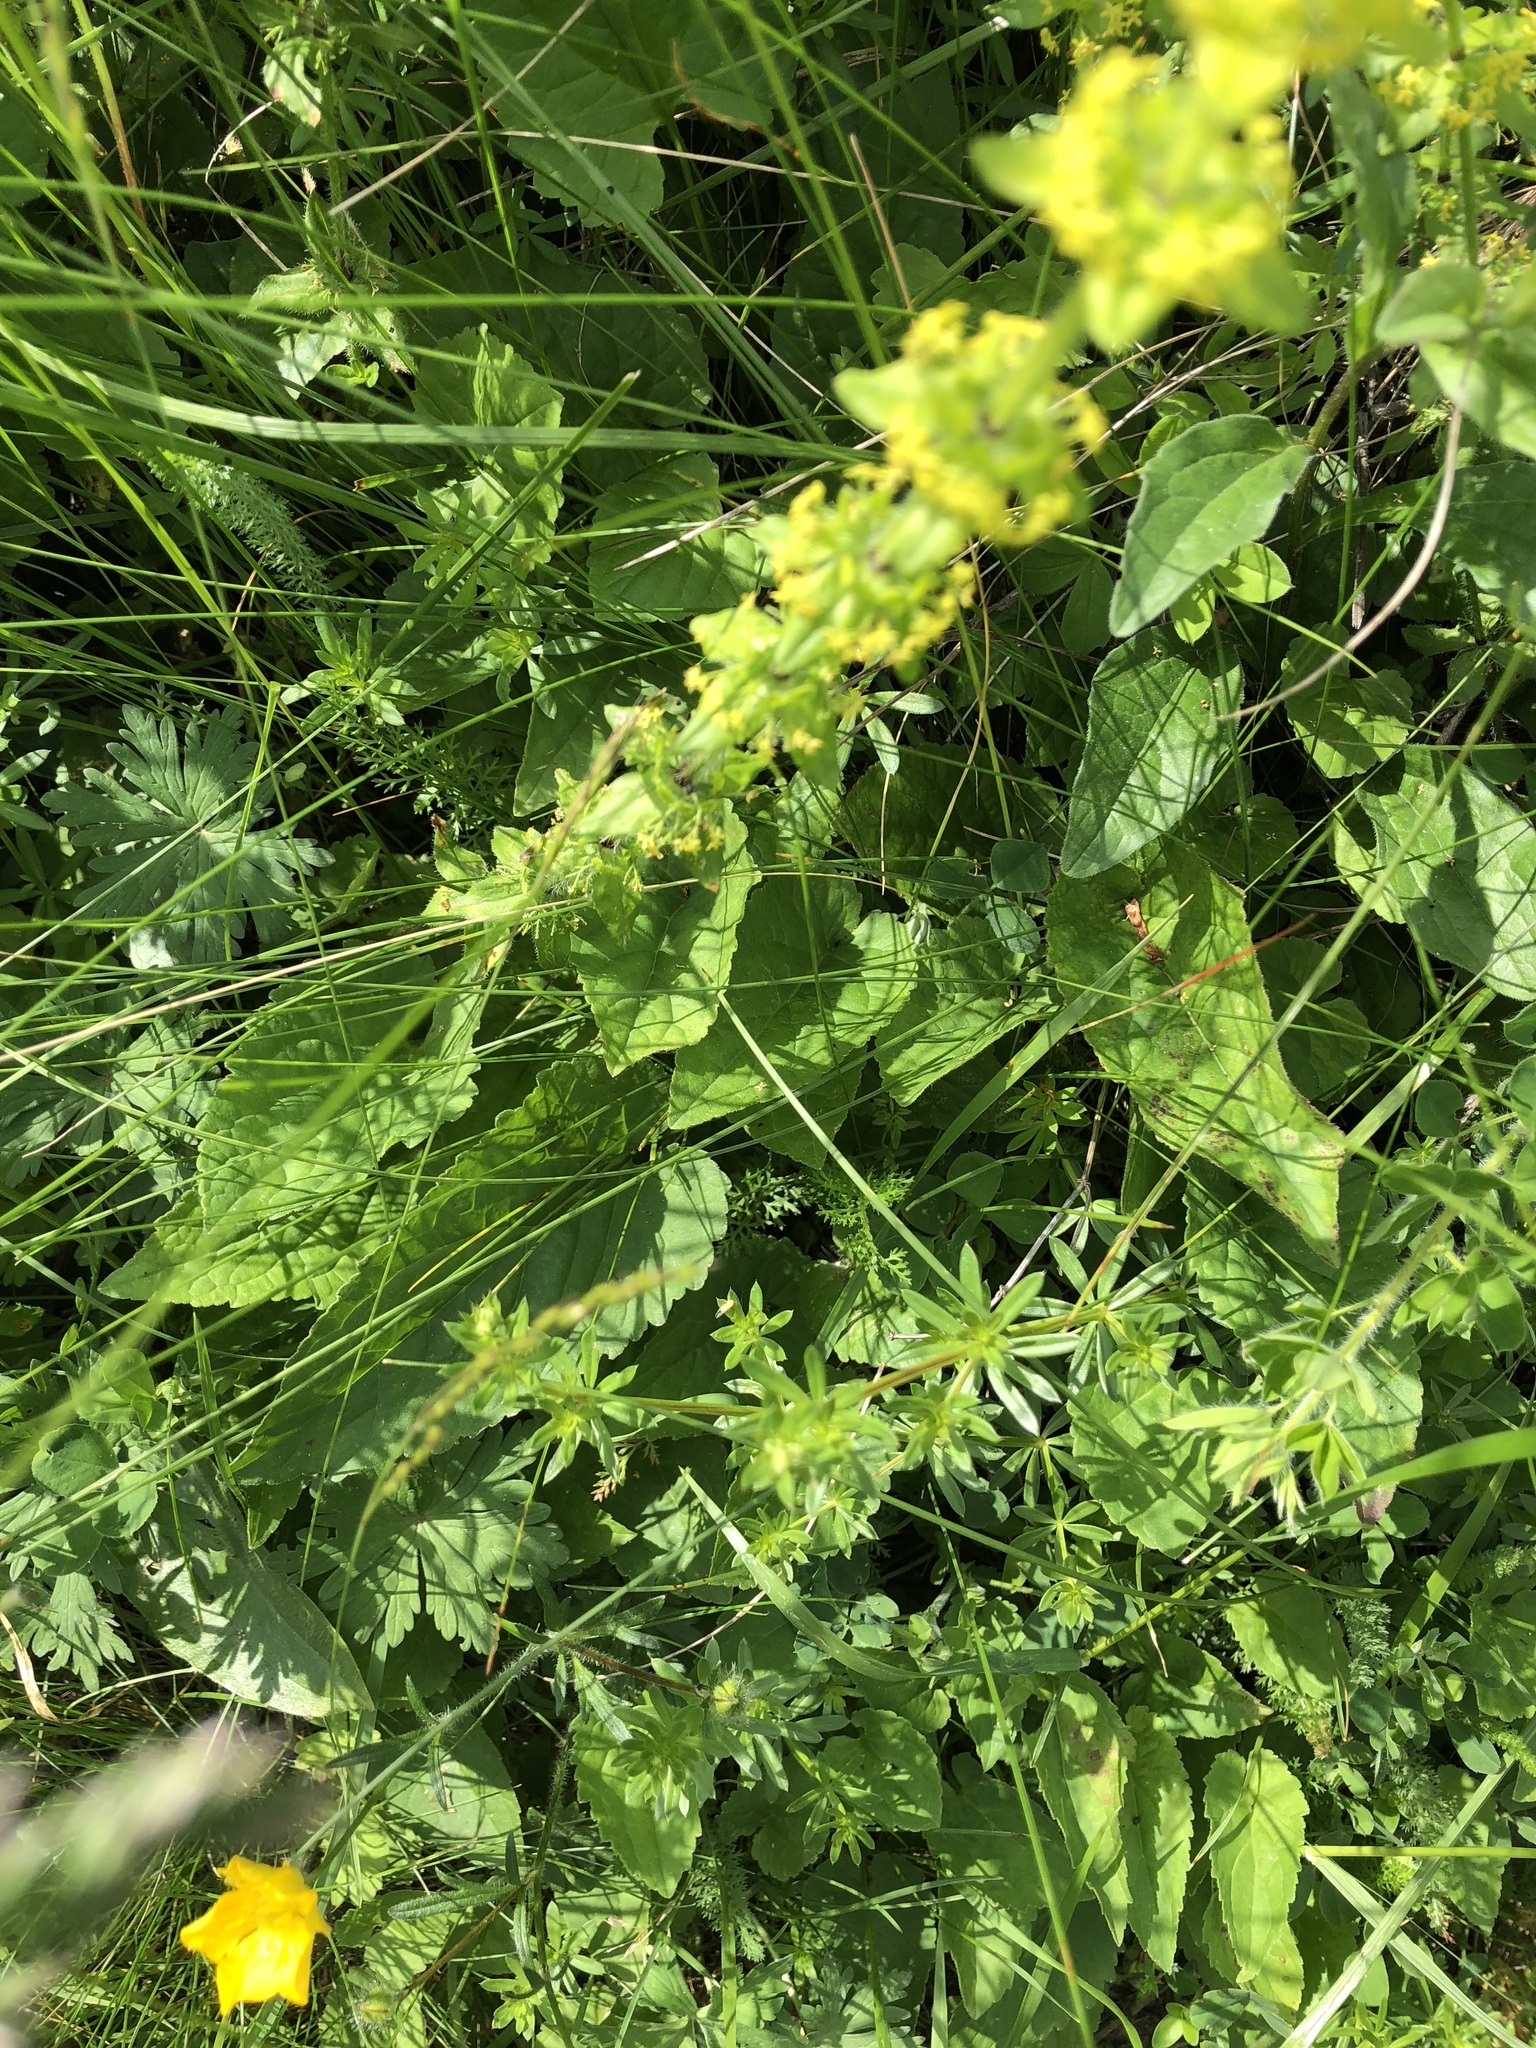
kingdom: Plantae
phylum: Tracheophyta
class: Magnoliopsida
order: Gentianales
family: Rubiaceae
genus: Cruciata
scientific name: Cruciata laevipes
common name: Crosswort
